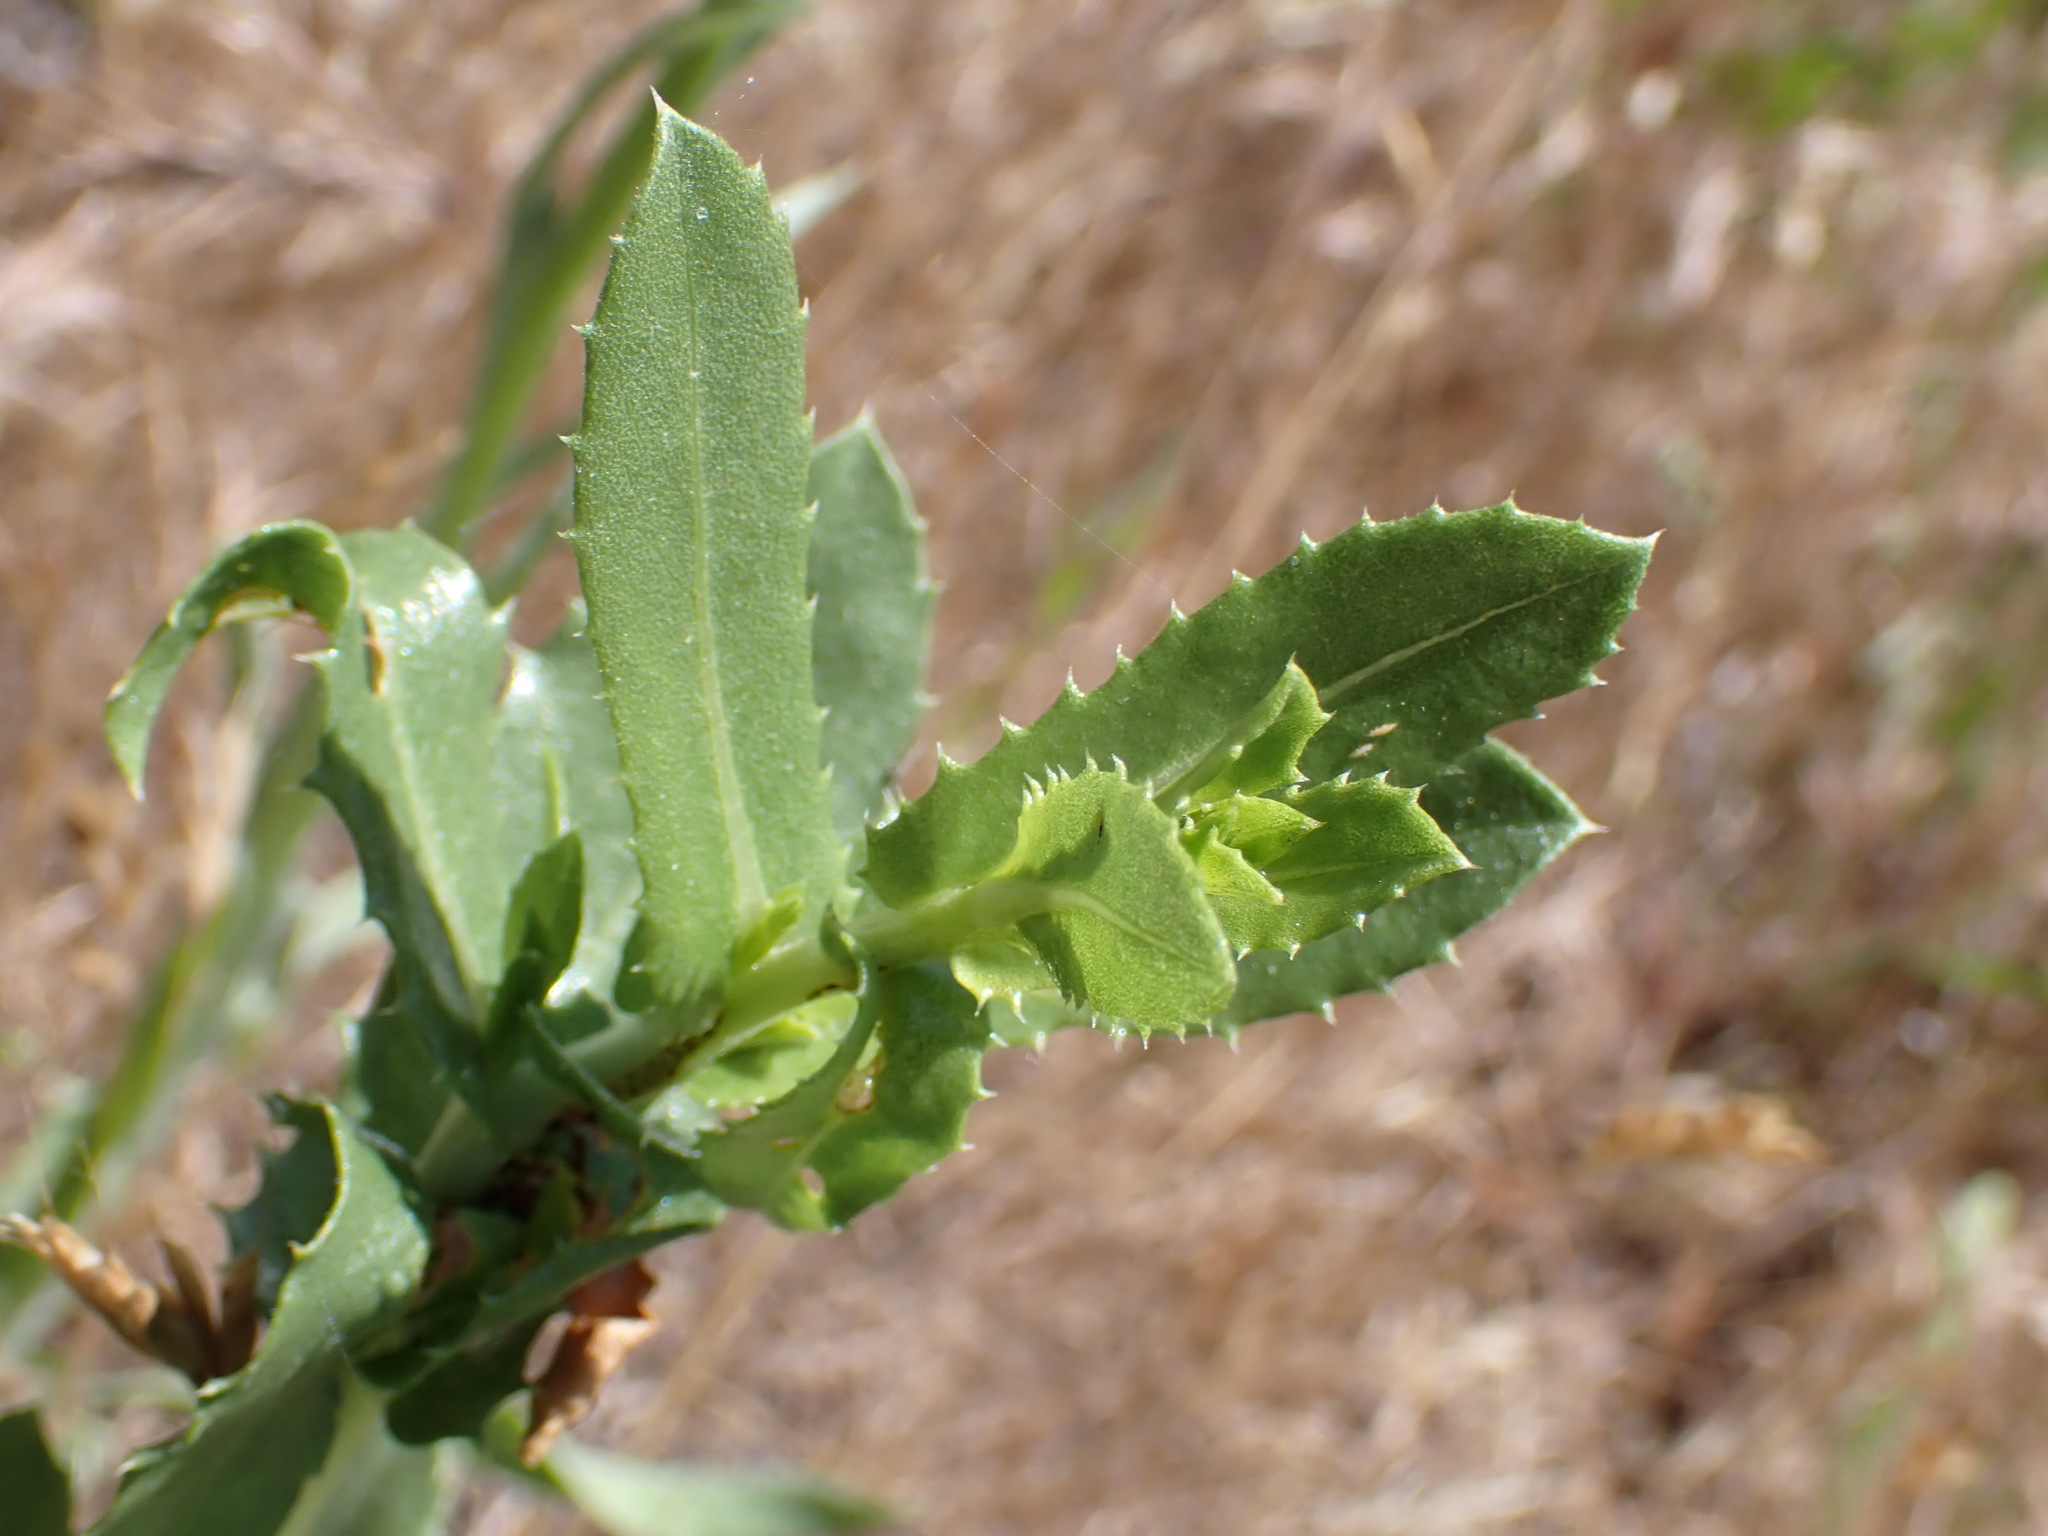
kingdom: Plantae
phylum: Tracheophyta
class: Magnoliopsida
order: Asterales
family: Asteraceae
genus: Grindelia
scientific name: Grindelia hirsutula
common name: Hairy gumweed
